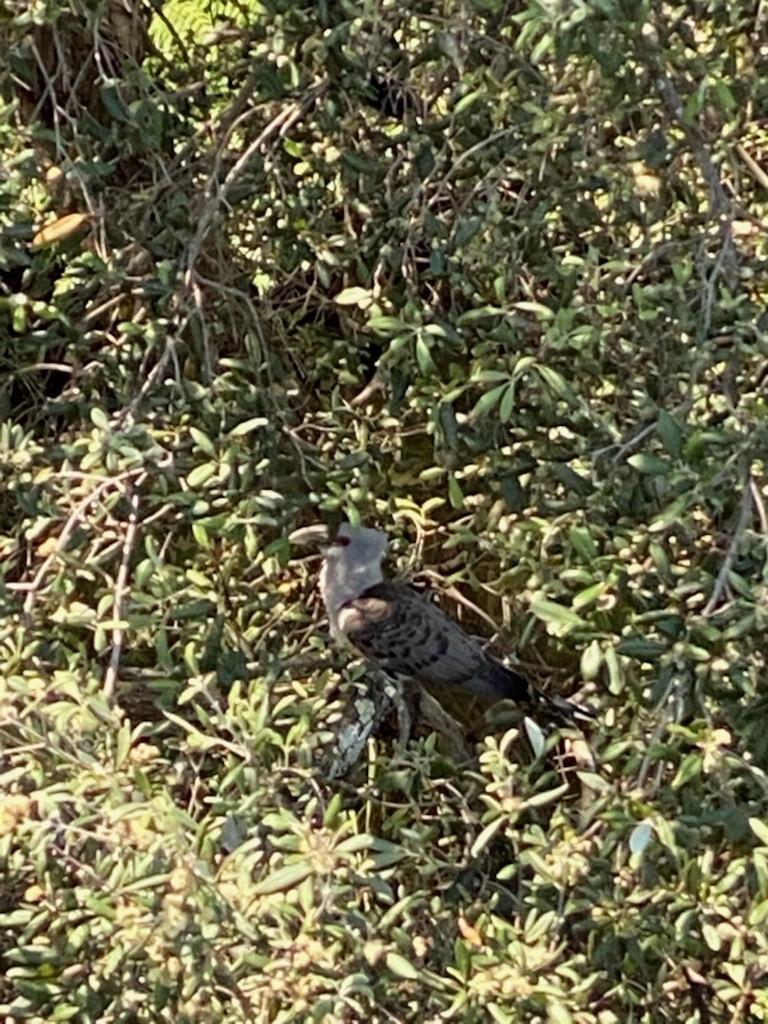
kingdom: Animalia
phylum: Chordata
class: Aves
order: Cuculiformes
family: Cuculidae
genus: Scythrops
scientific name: Scythrops novaehollandiae
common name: Channel-billed cuckoo
